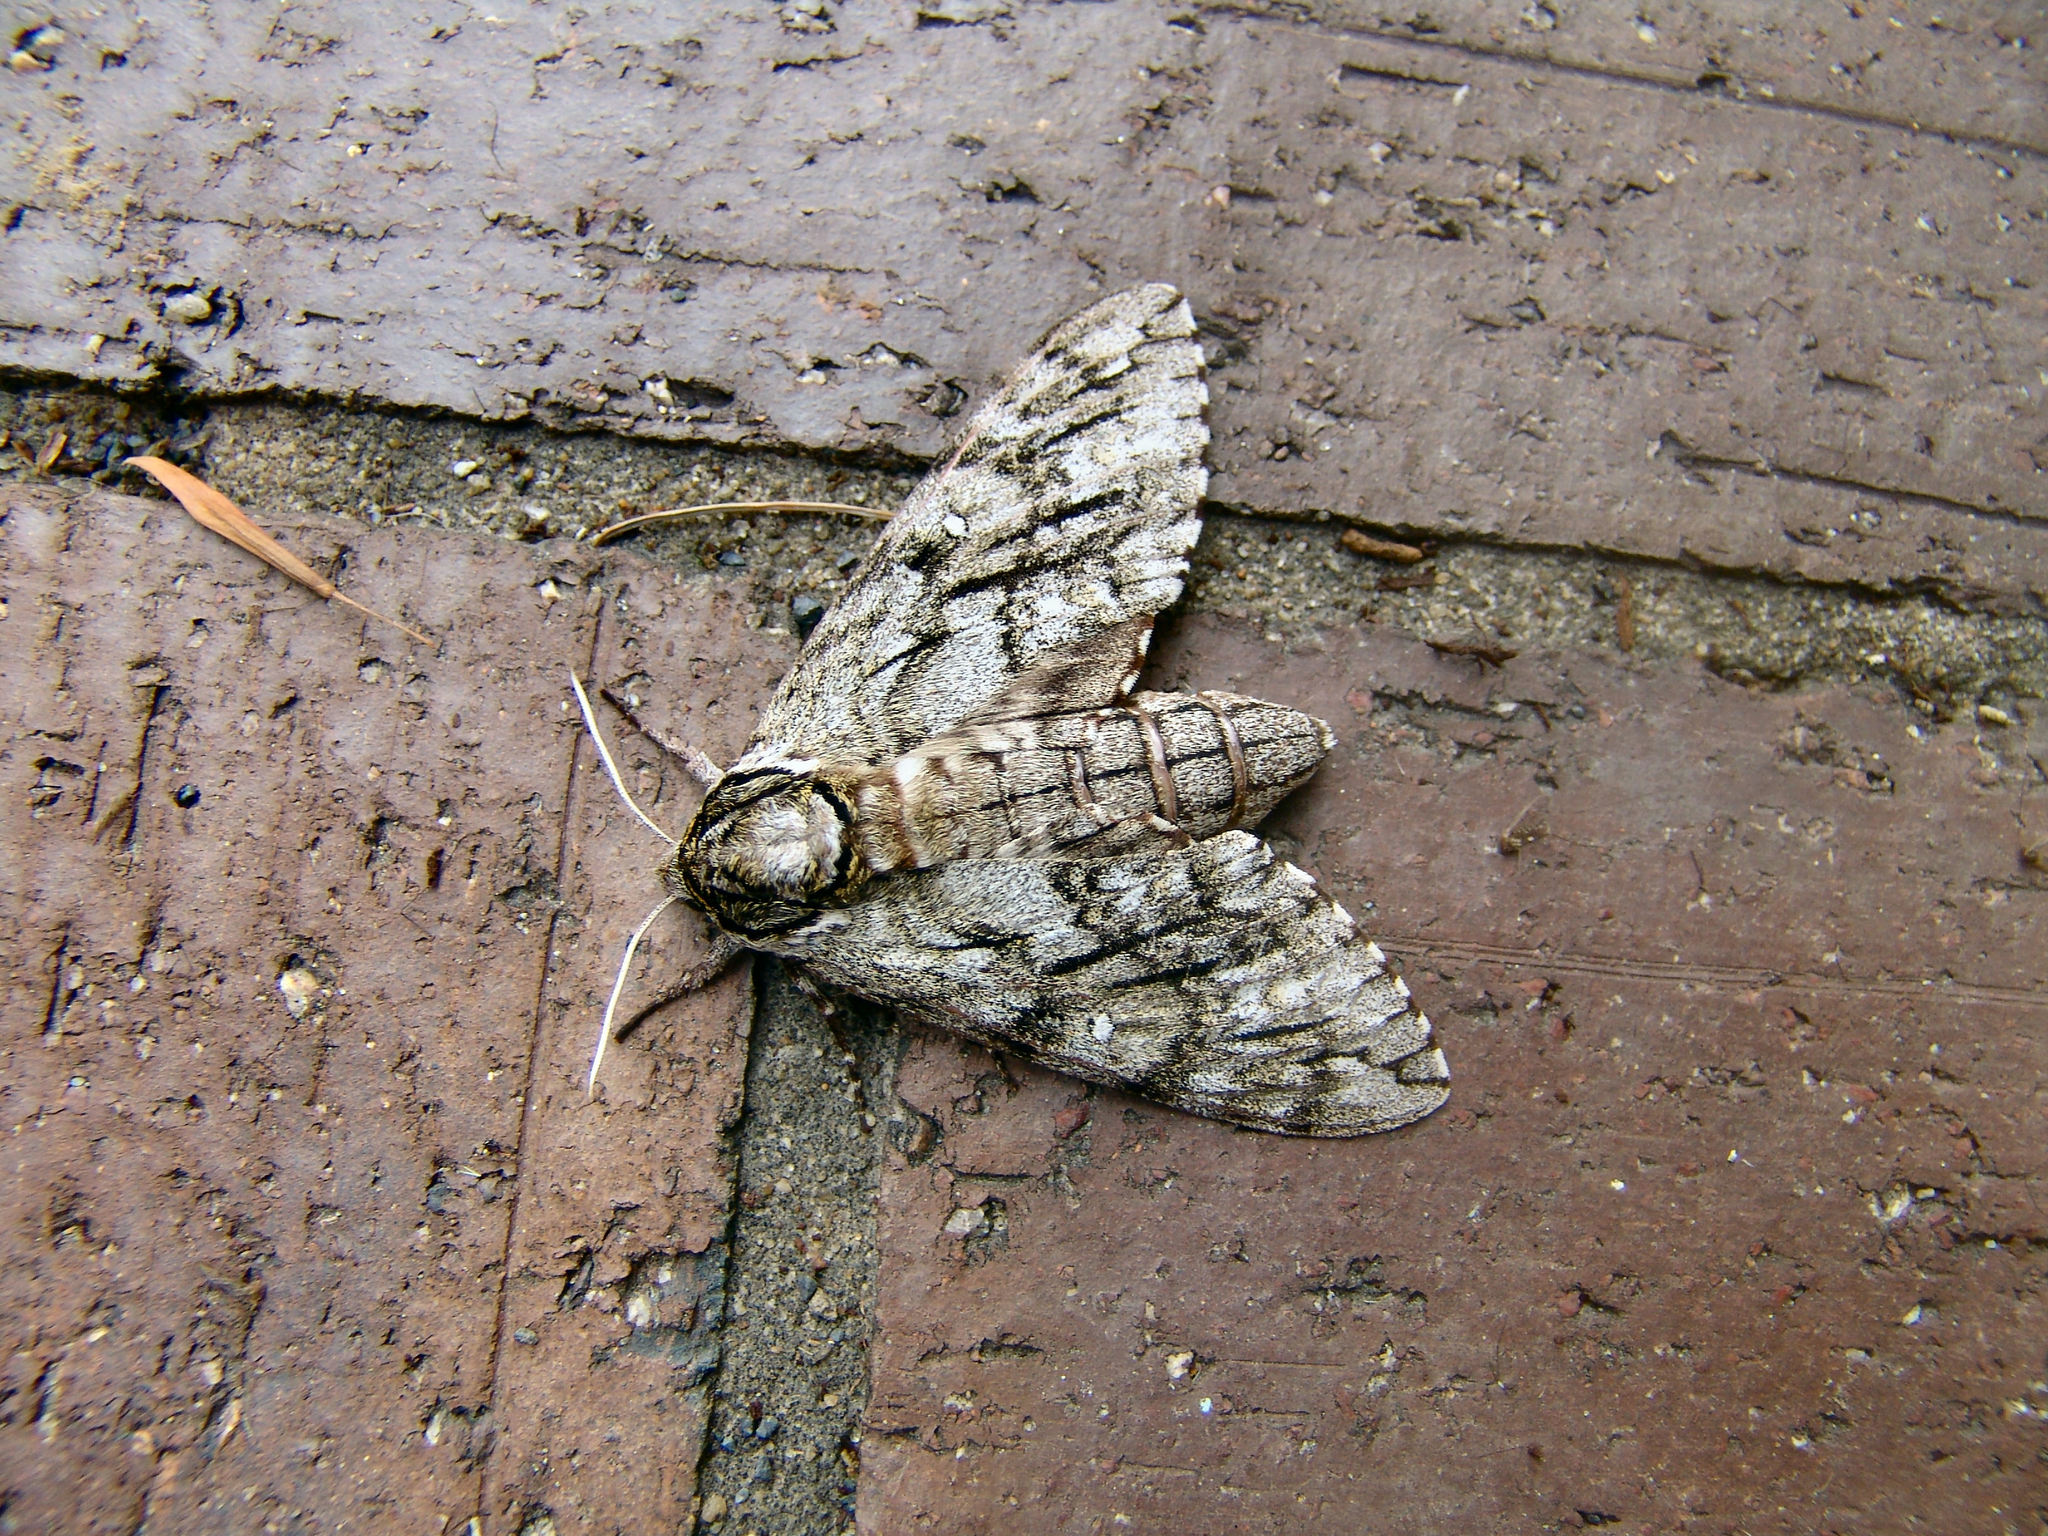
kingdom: Animalia
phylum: Arthropoda
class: Insecta
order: Lepidoptera
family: Sphingidae
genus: Ceratomia
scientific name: Ceratomia undulosa
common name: Waved sphinx
